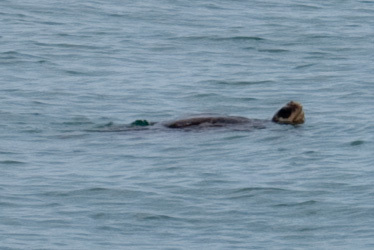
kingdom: Animalia
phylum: Chordata
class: Testudines
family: Cheloniidae
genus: Lepidochelys
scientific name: Lepidochelys olivacea
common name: Olive ridley
